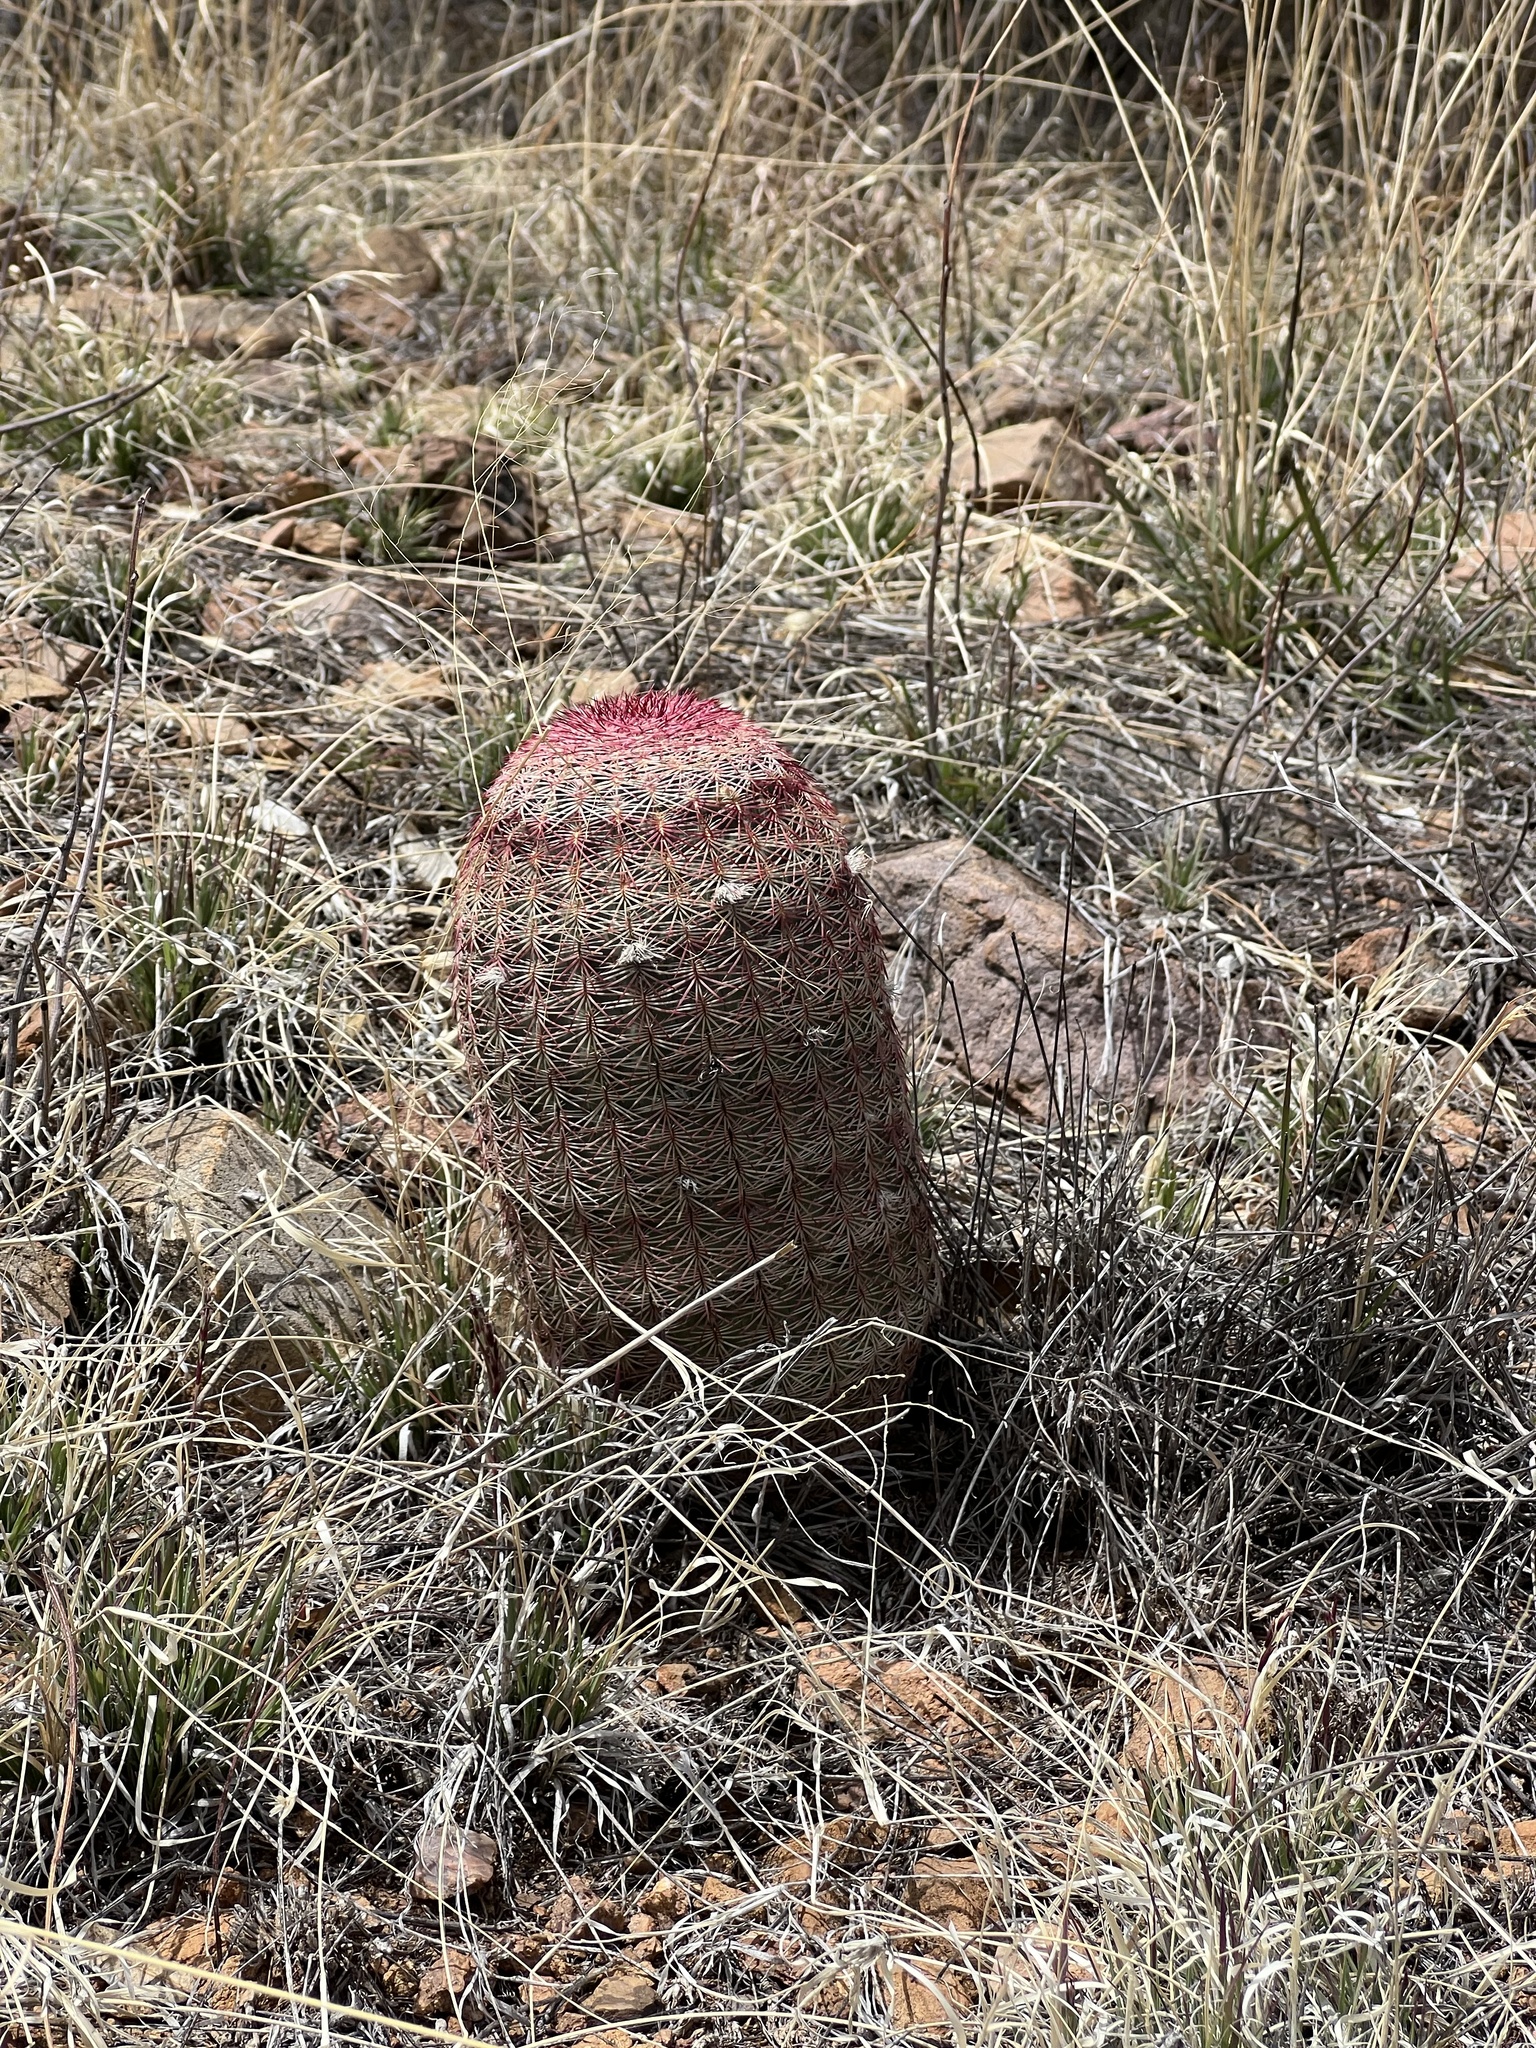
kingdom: Plantae
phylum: Tracheophyta
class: Magnoliopsida
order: Caryophyllales
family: Cactaceae
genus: Echinocereus
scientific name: Echinocereus rigidissimus
